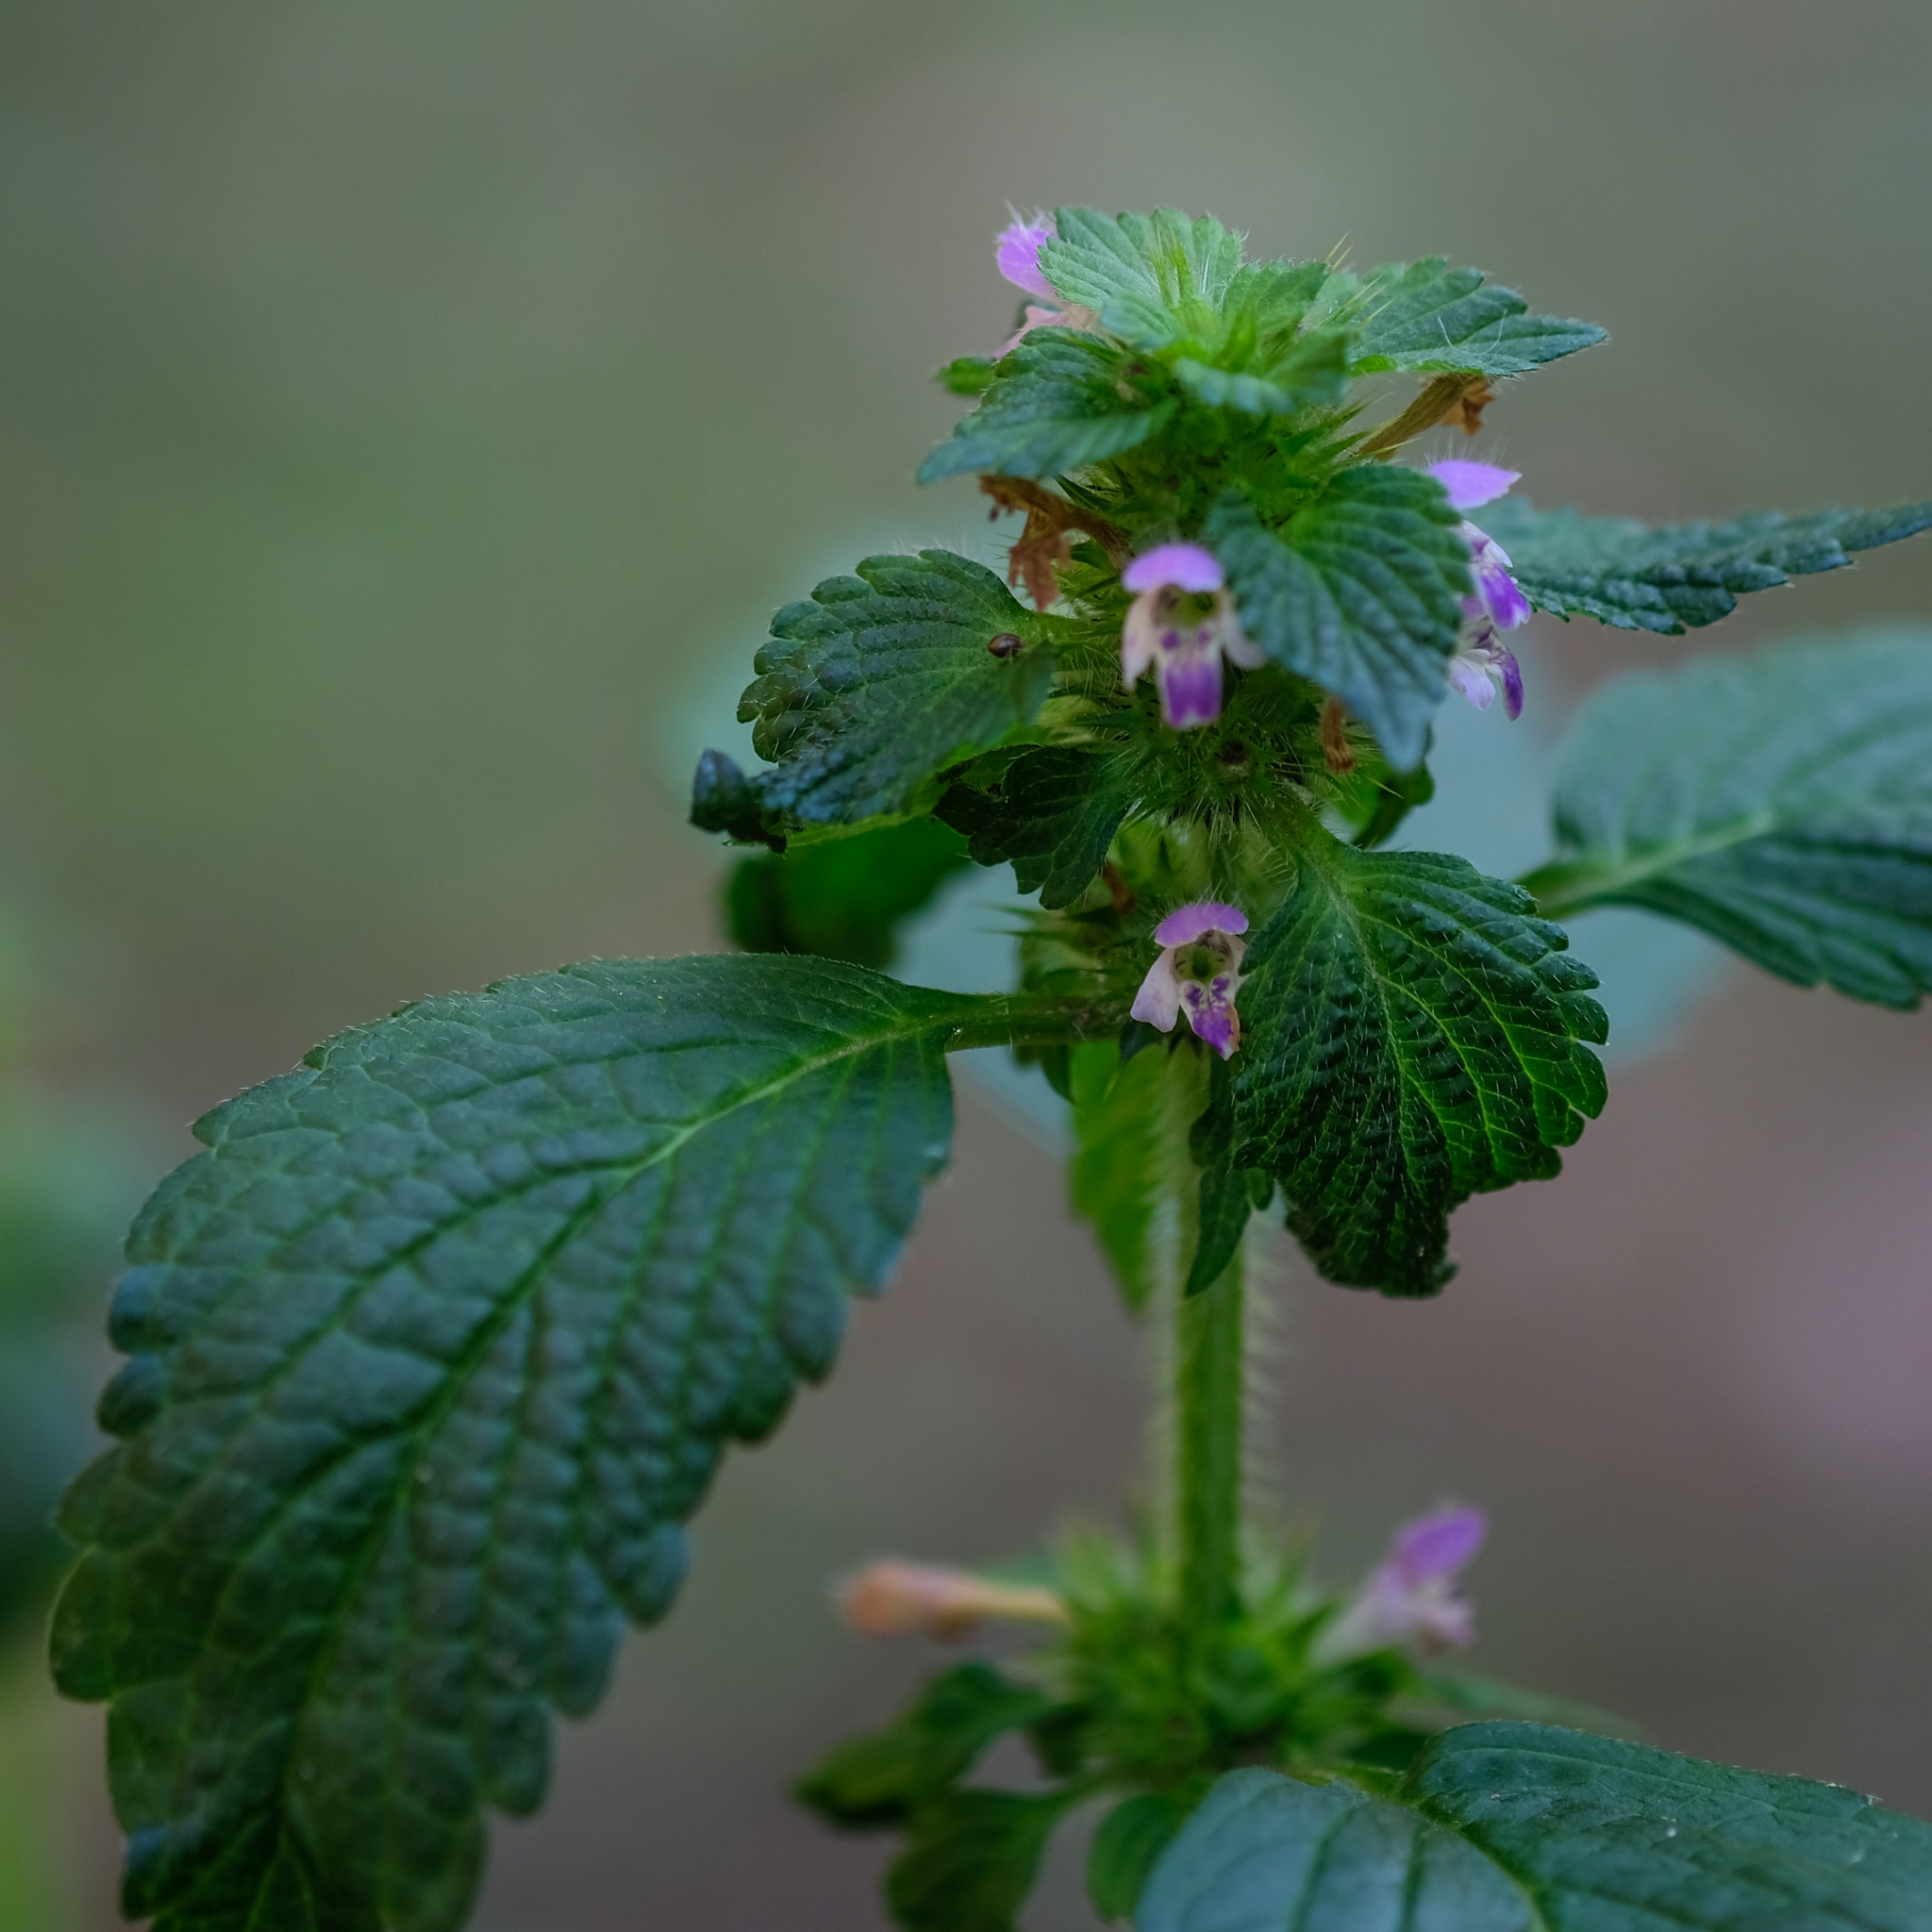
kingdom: Plantae
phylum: Tracheophyta
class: Magnoliopsida
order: Lamiales
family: Lamiaceae
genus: Galeopsis
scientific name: Galeopsis bifida
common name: Bifid hemp-nettle
